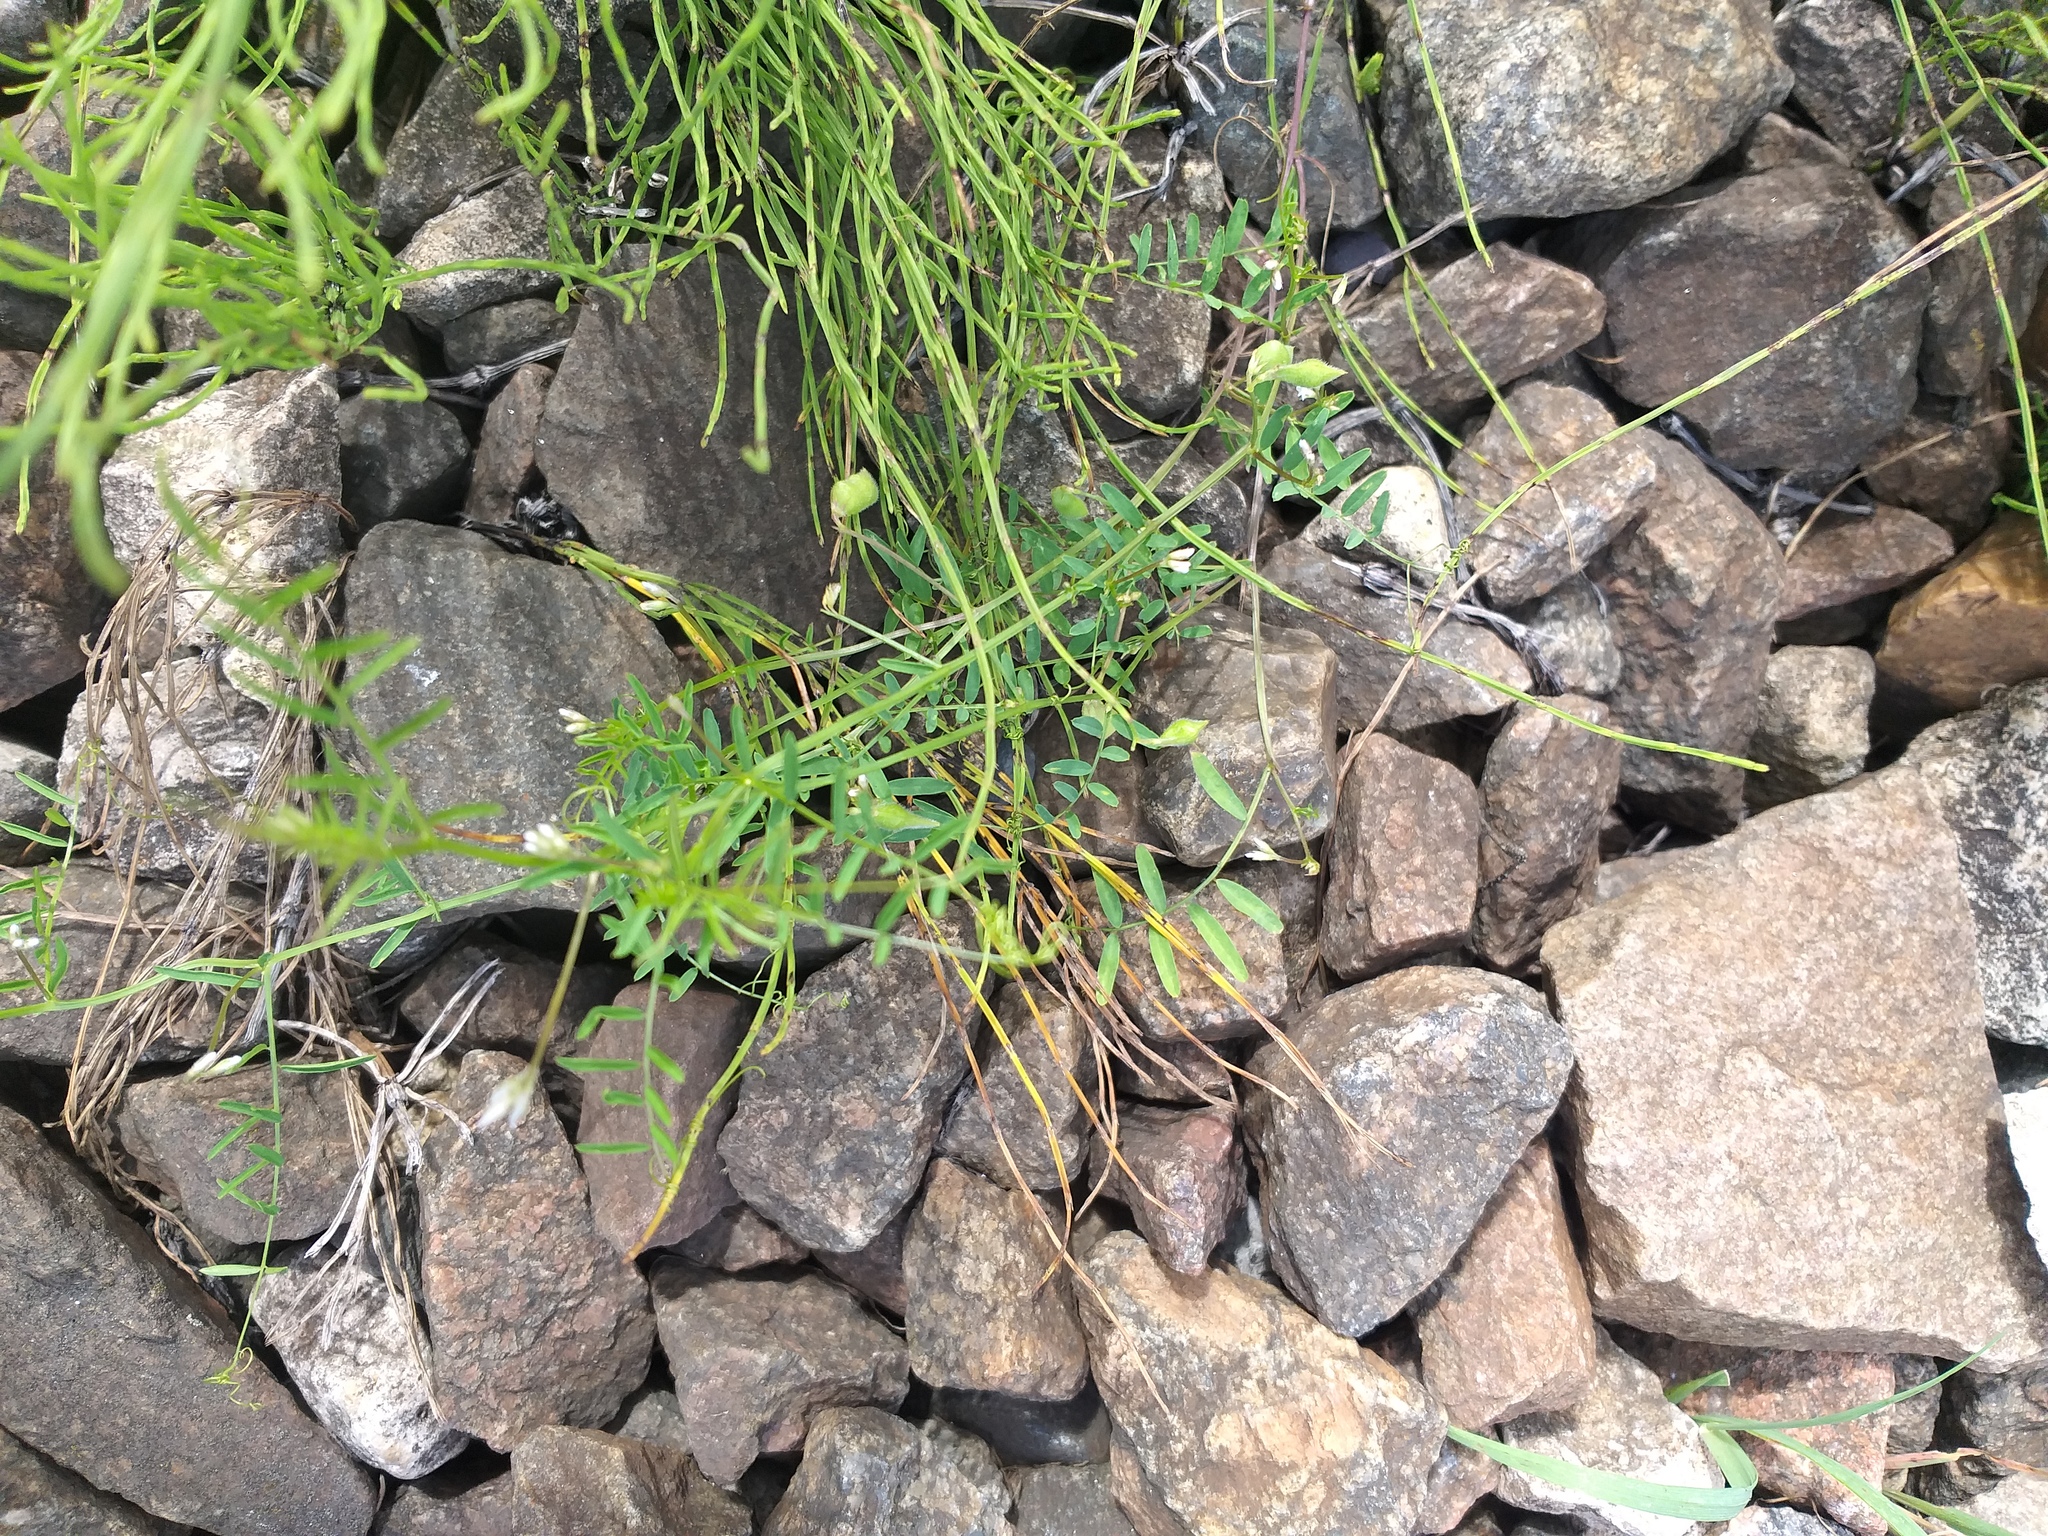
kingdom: Plantae
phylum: Tracheophyta
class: Magnoliopsida
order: Fabales
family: Fabaceae
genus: Vicia
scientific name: Vicia hirsuta
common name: Tiny vetch
